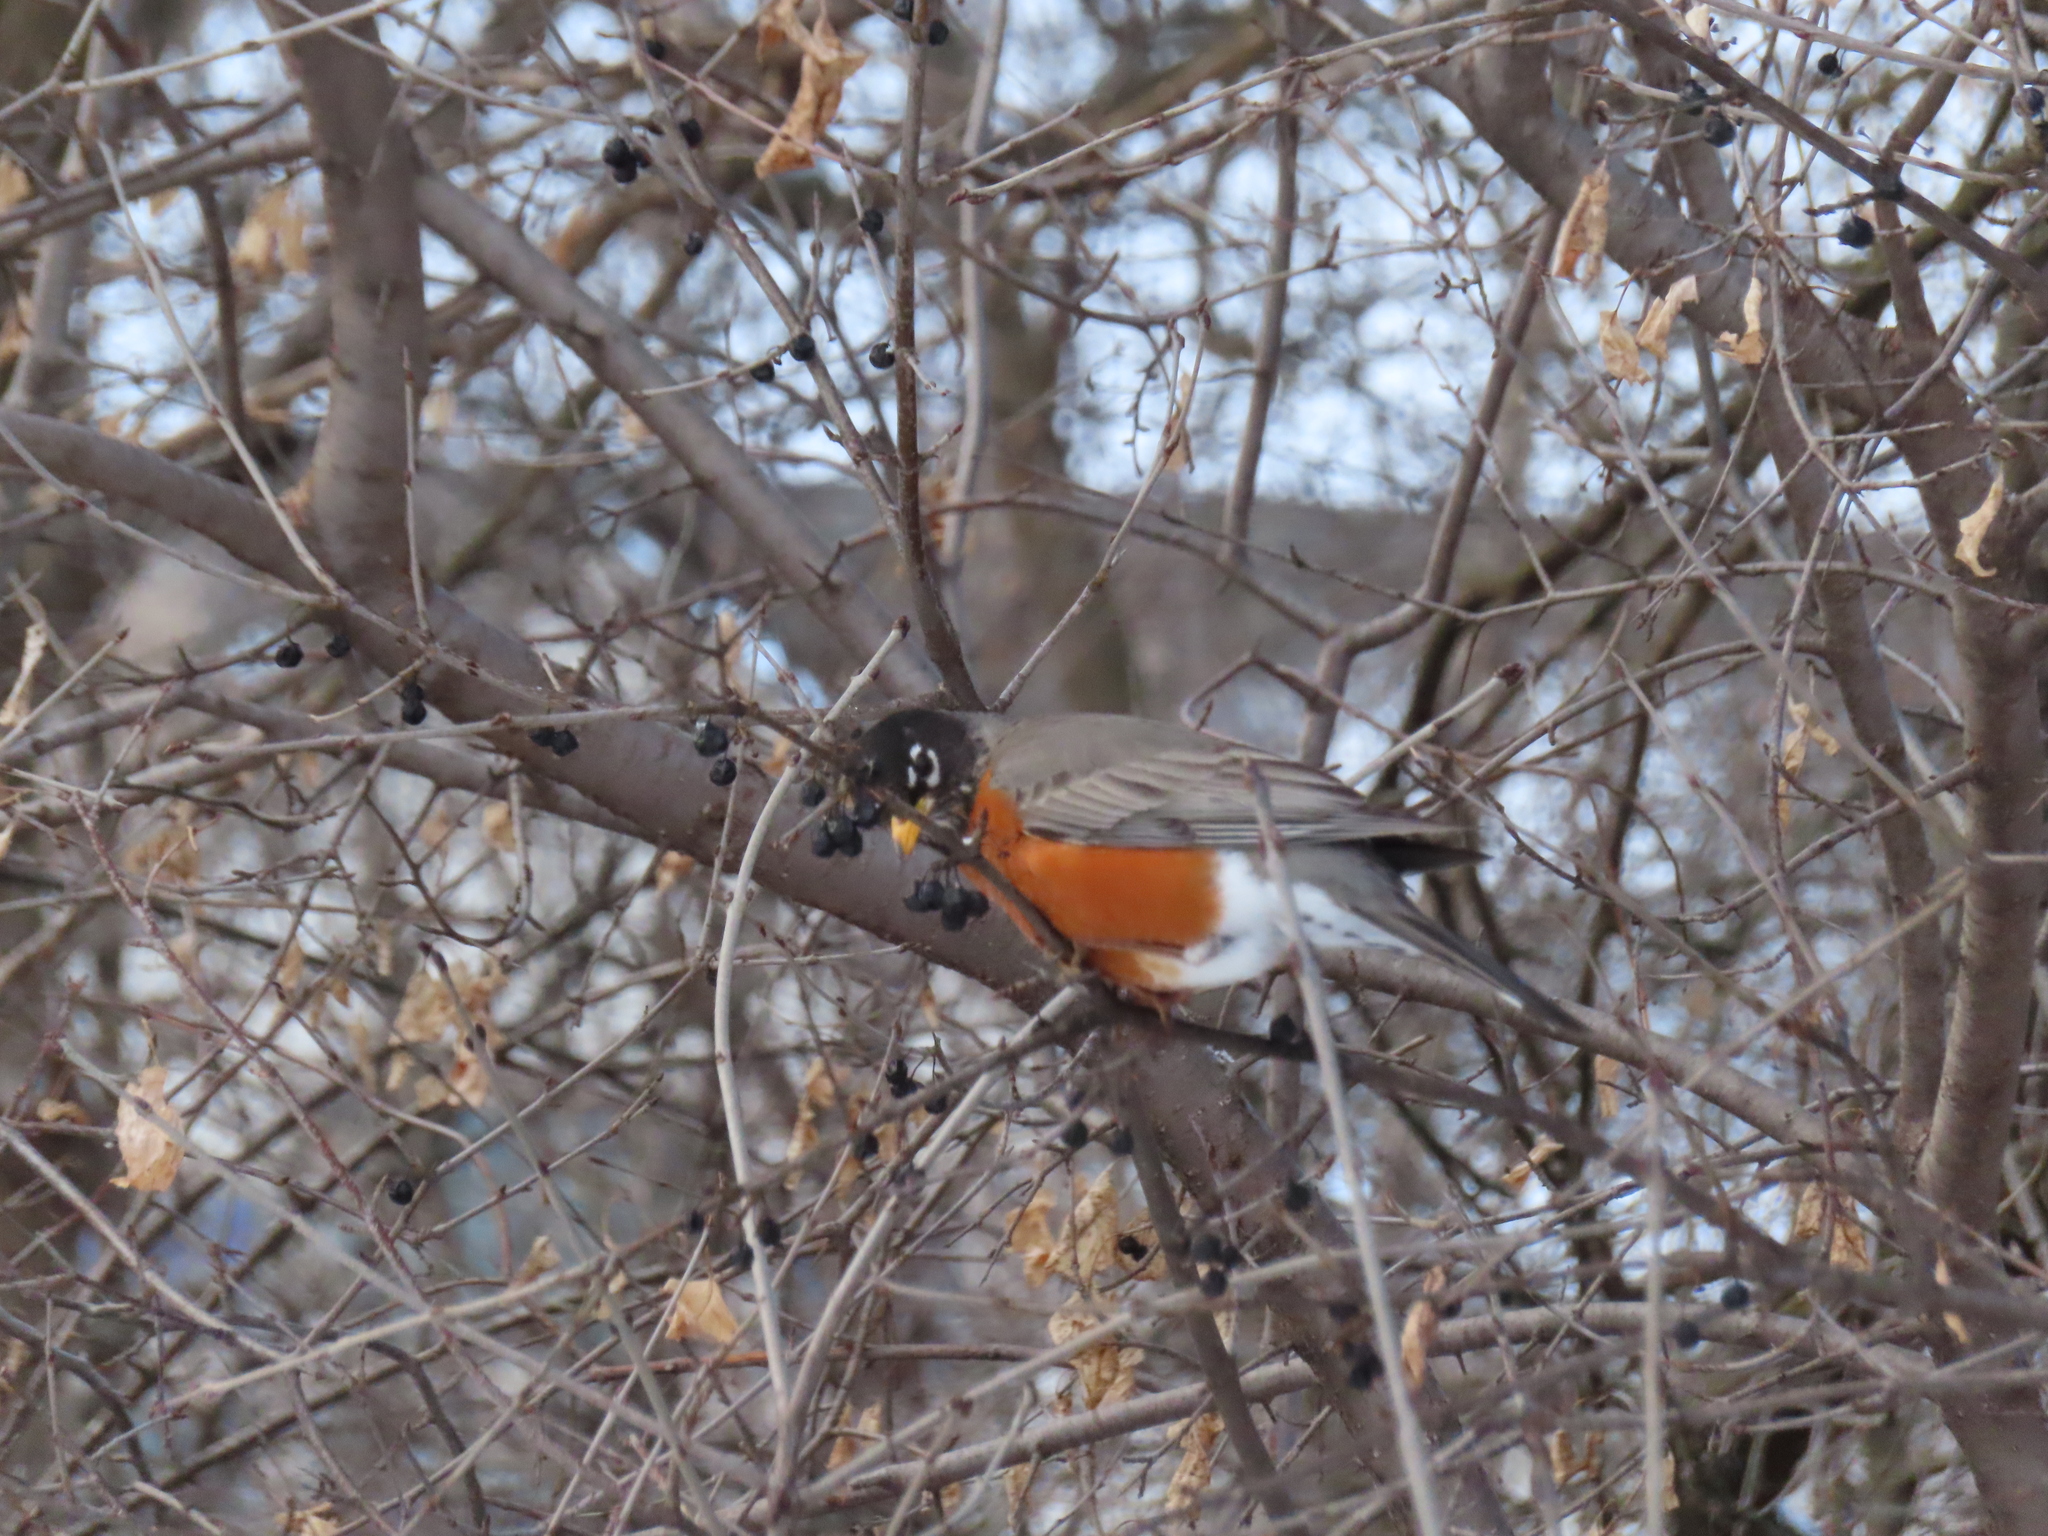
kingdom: Animalia
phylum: Chordata
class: Aves
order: Passeriformes
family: Turdidae
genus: Turdus
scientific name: Turdus migratorius
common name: American robin
